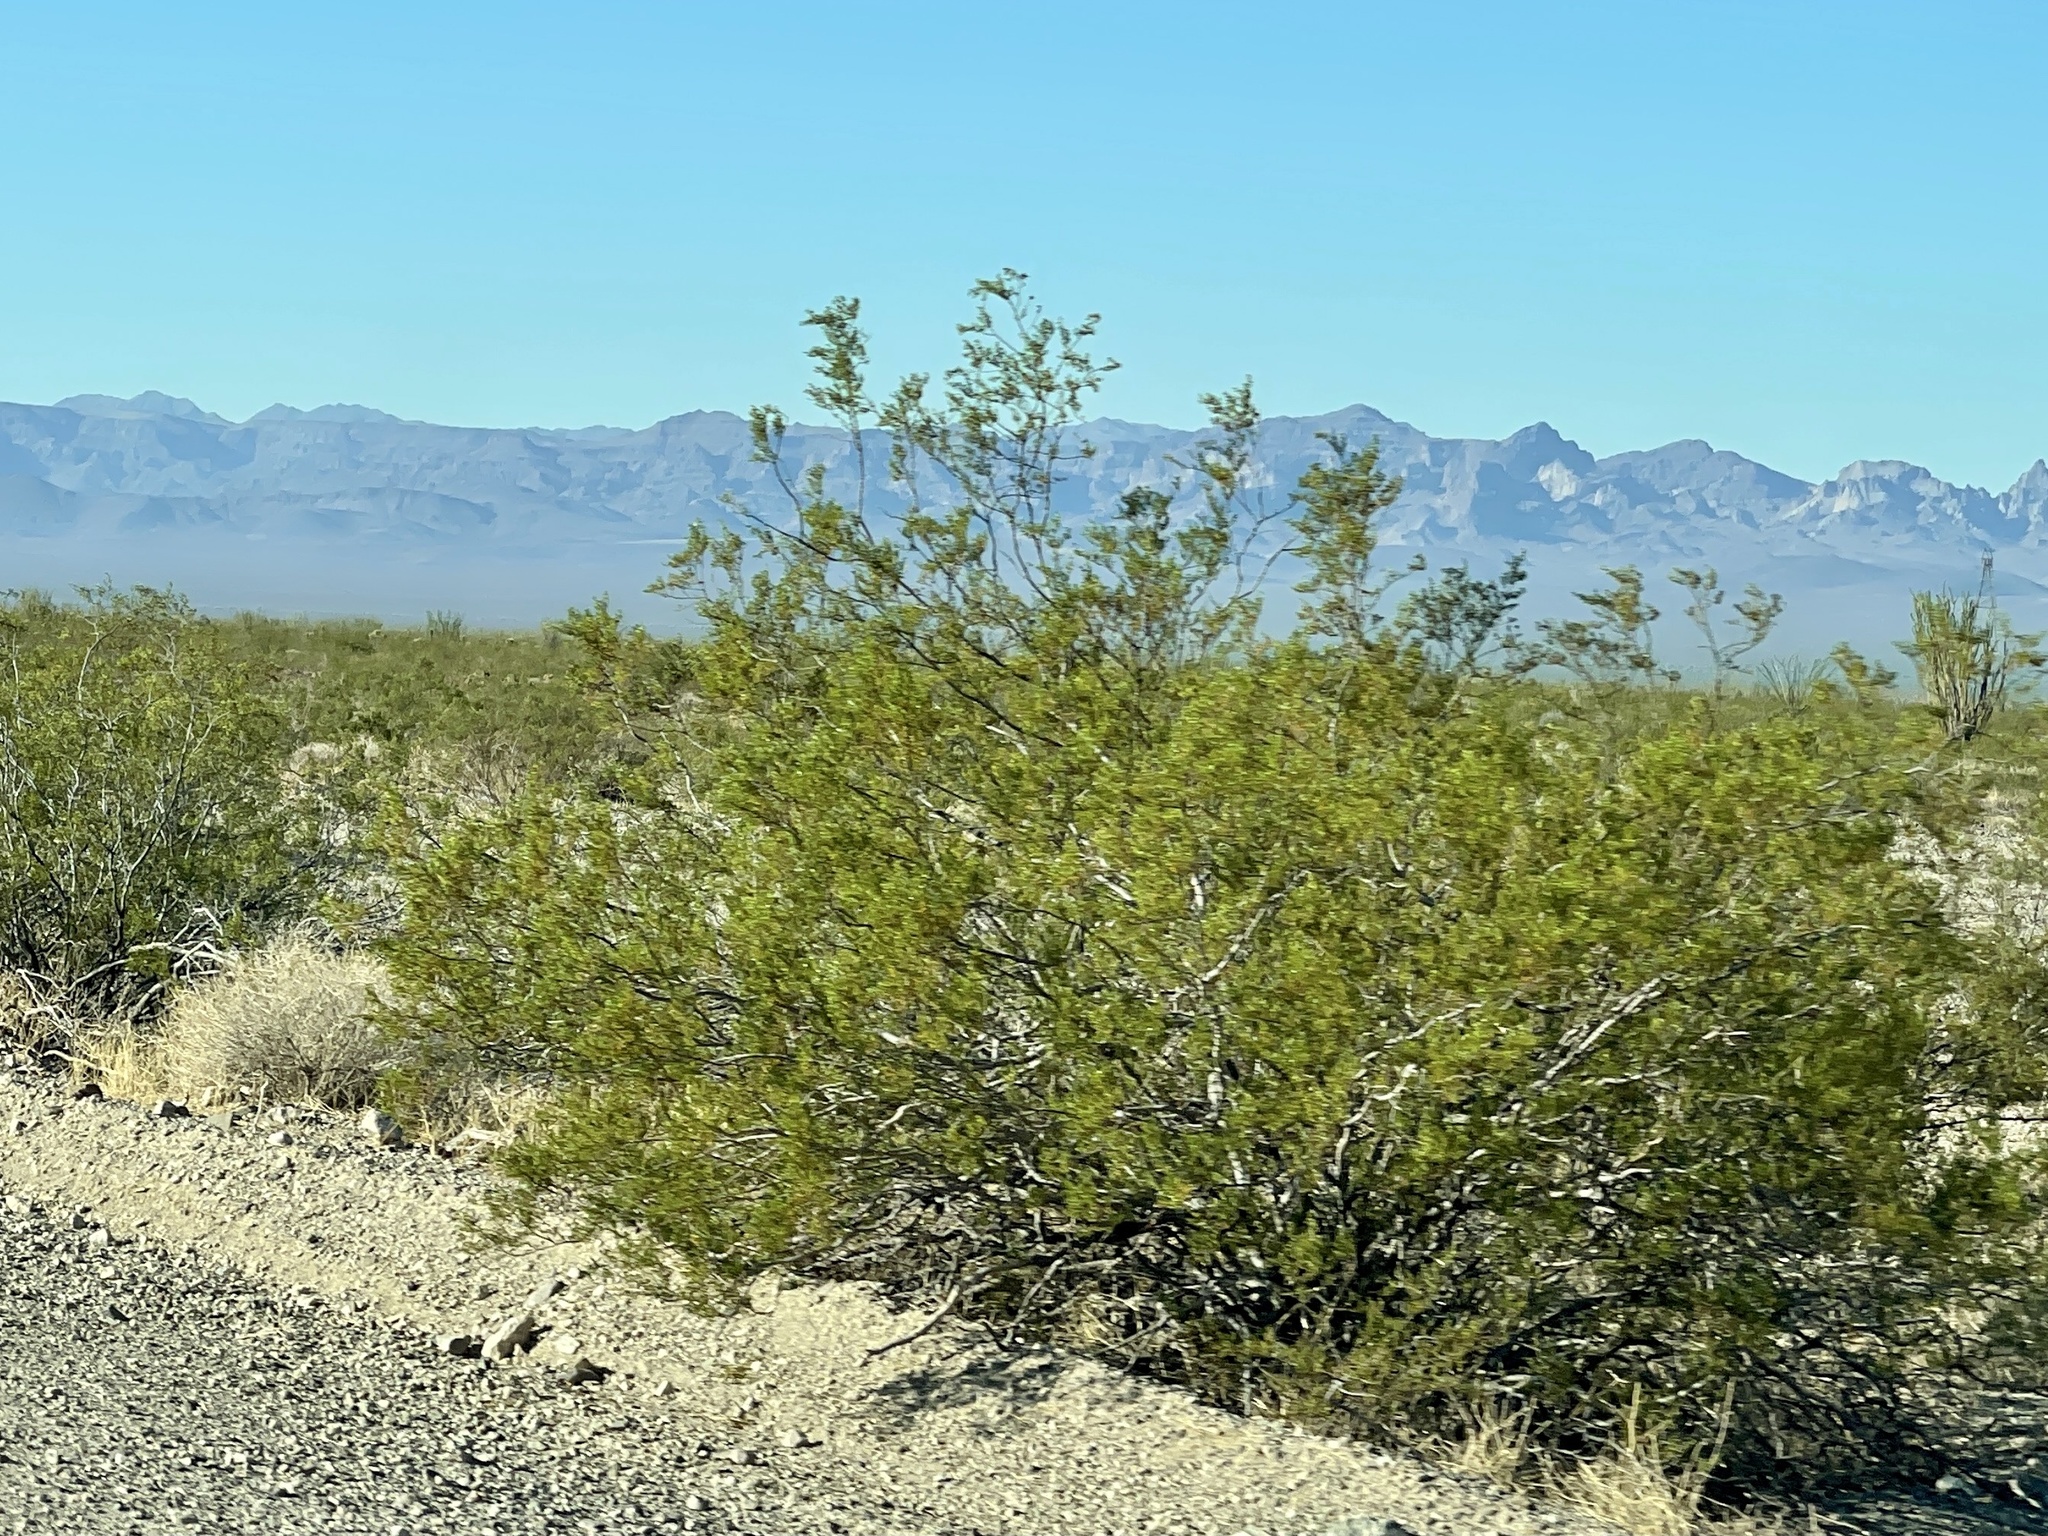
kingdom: Plantae
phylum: Tracheophyta
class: Magnoliopsida
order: Zygophyllales
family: Zygophyllaceae
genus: Larrea
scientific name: Larrea tridentata
